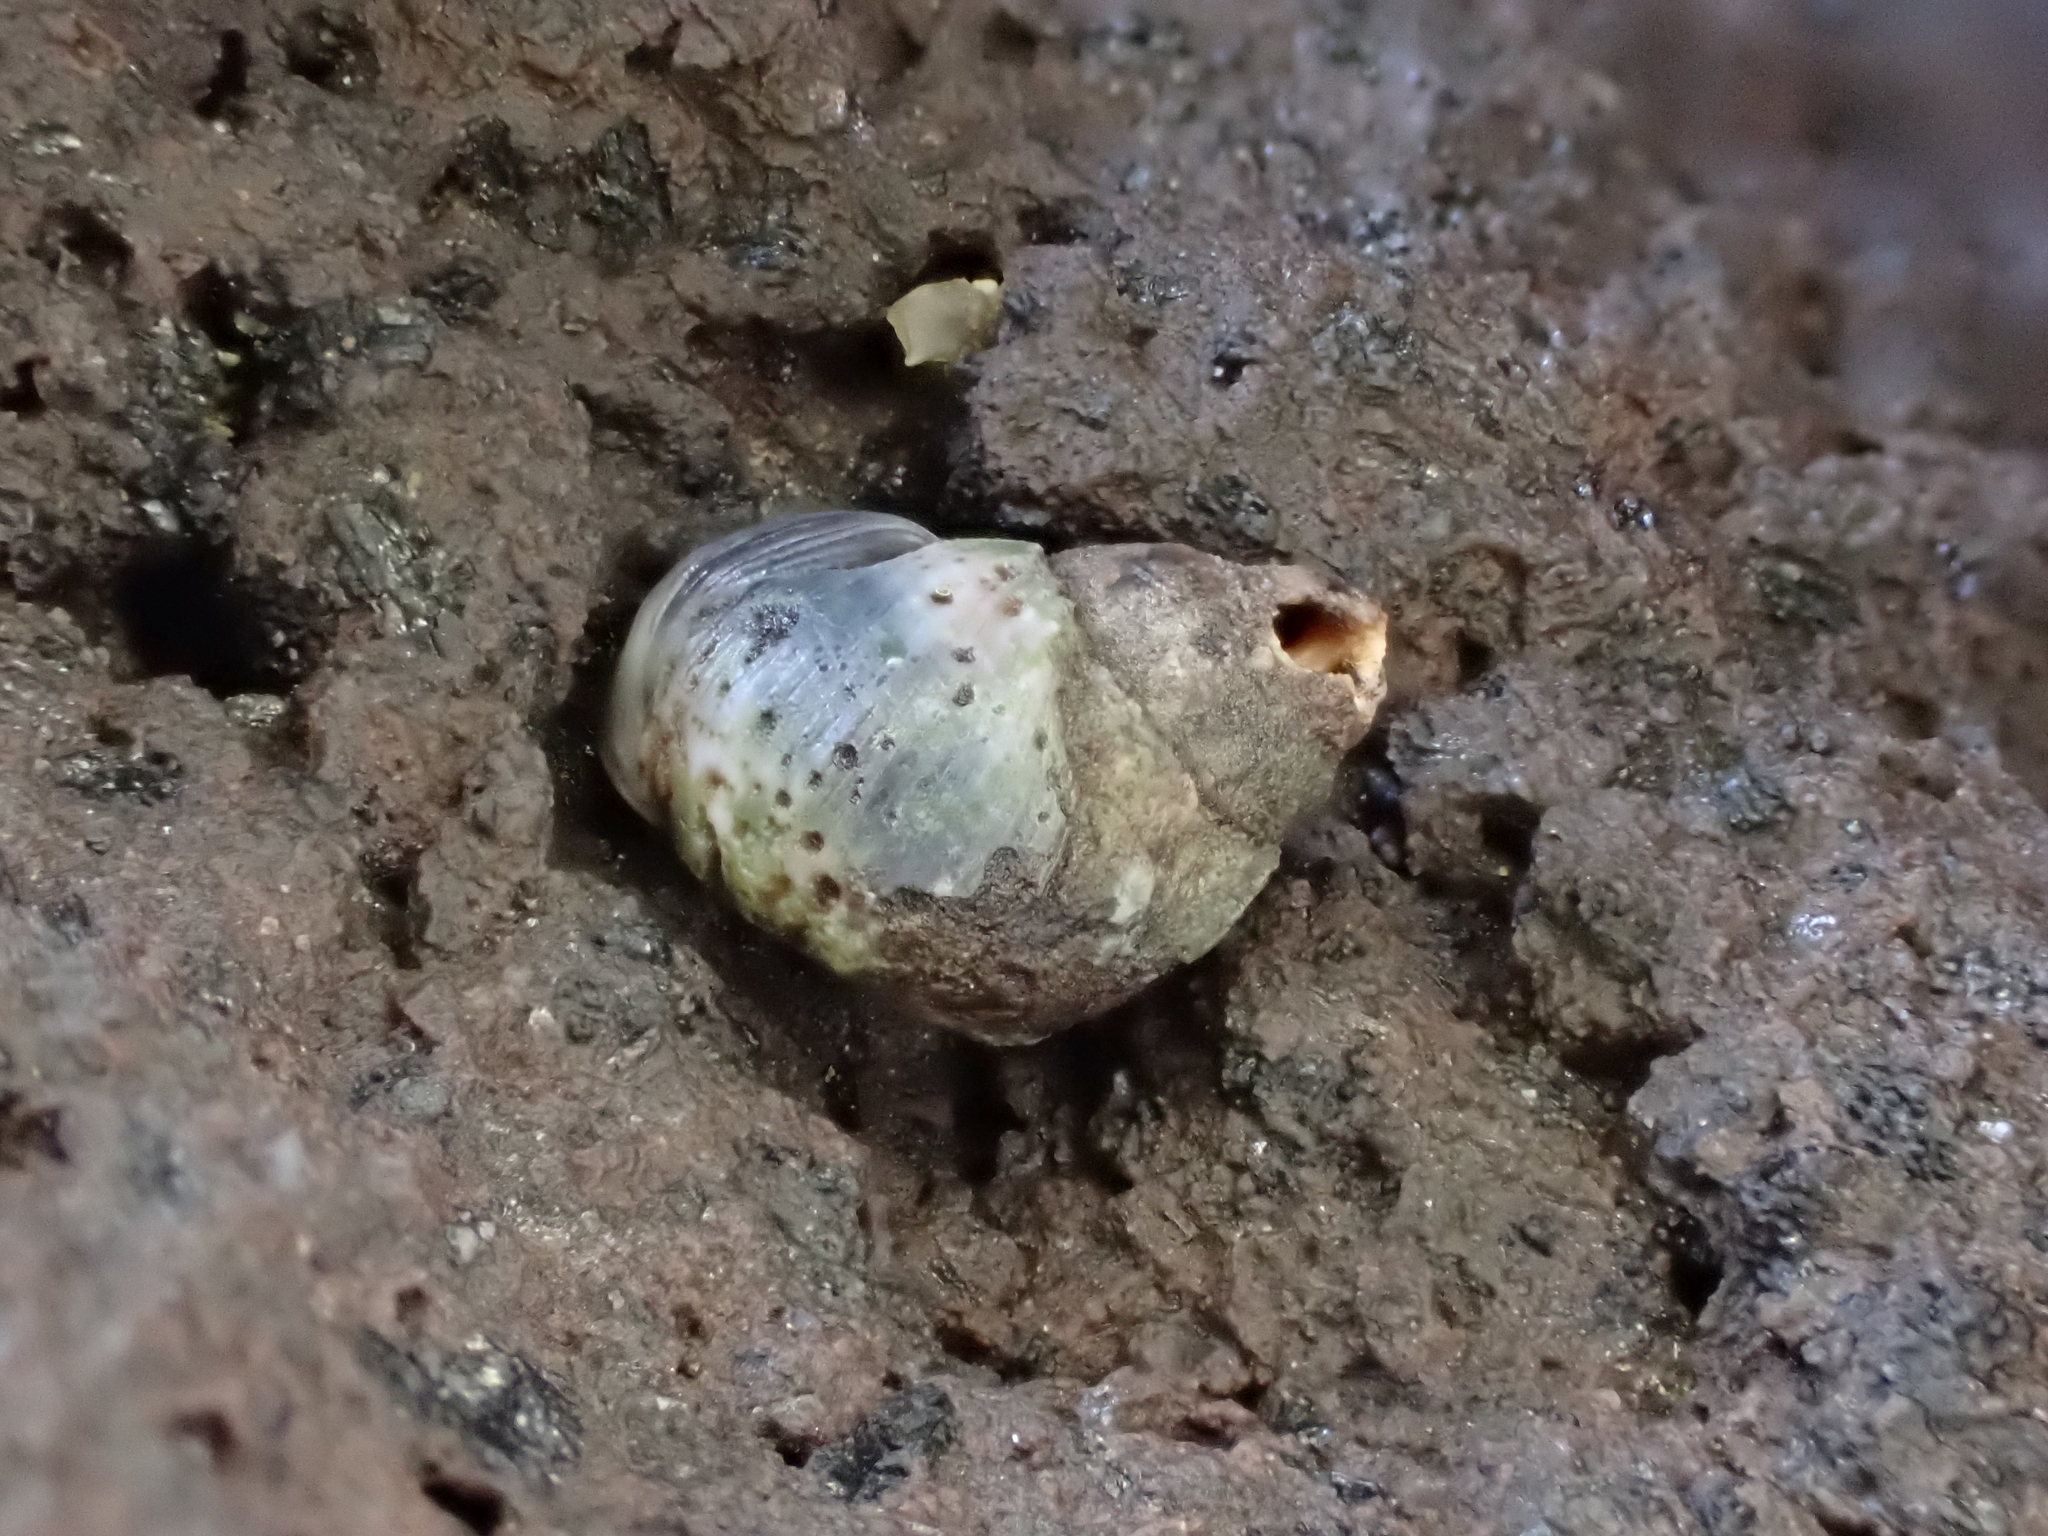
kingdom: Animalia
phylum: Mollusca
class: Gastropoda
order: Littorinimorpha
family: Littorinidae
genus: Austrolittorina
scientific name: Austrolittorina antipodum
